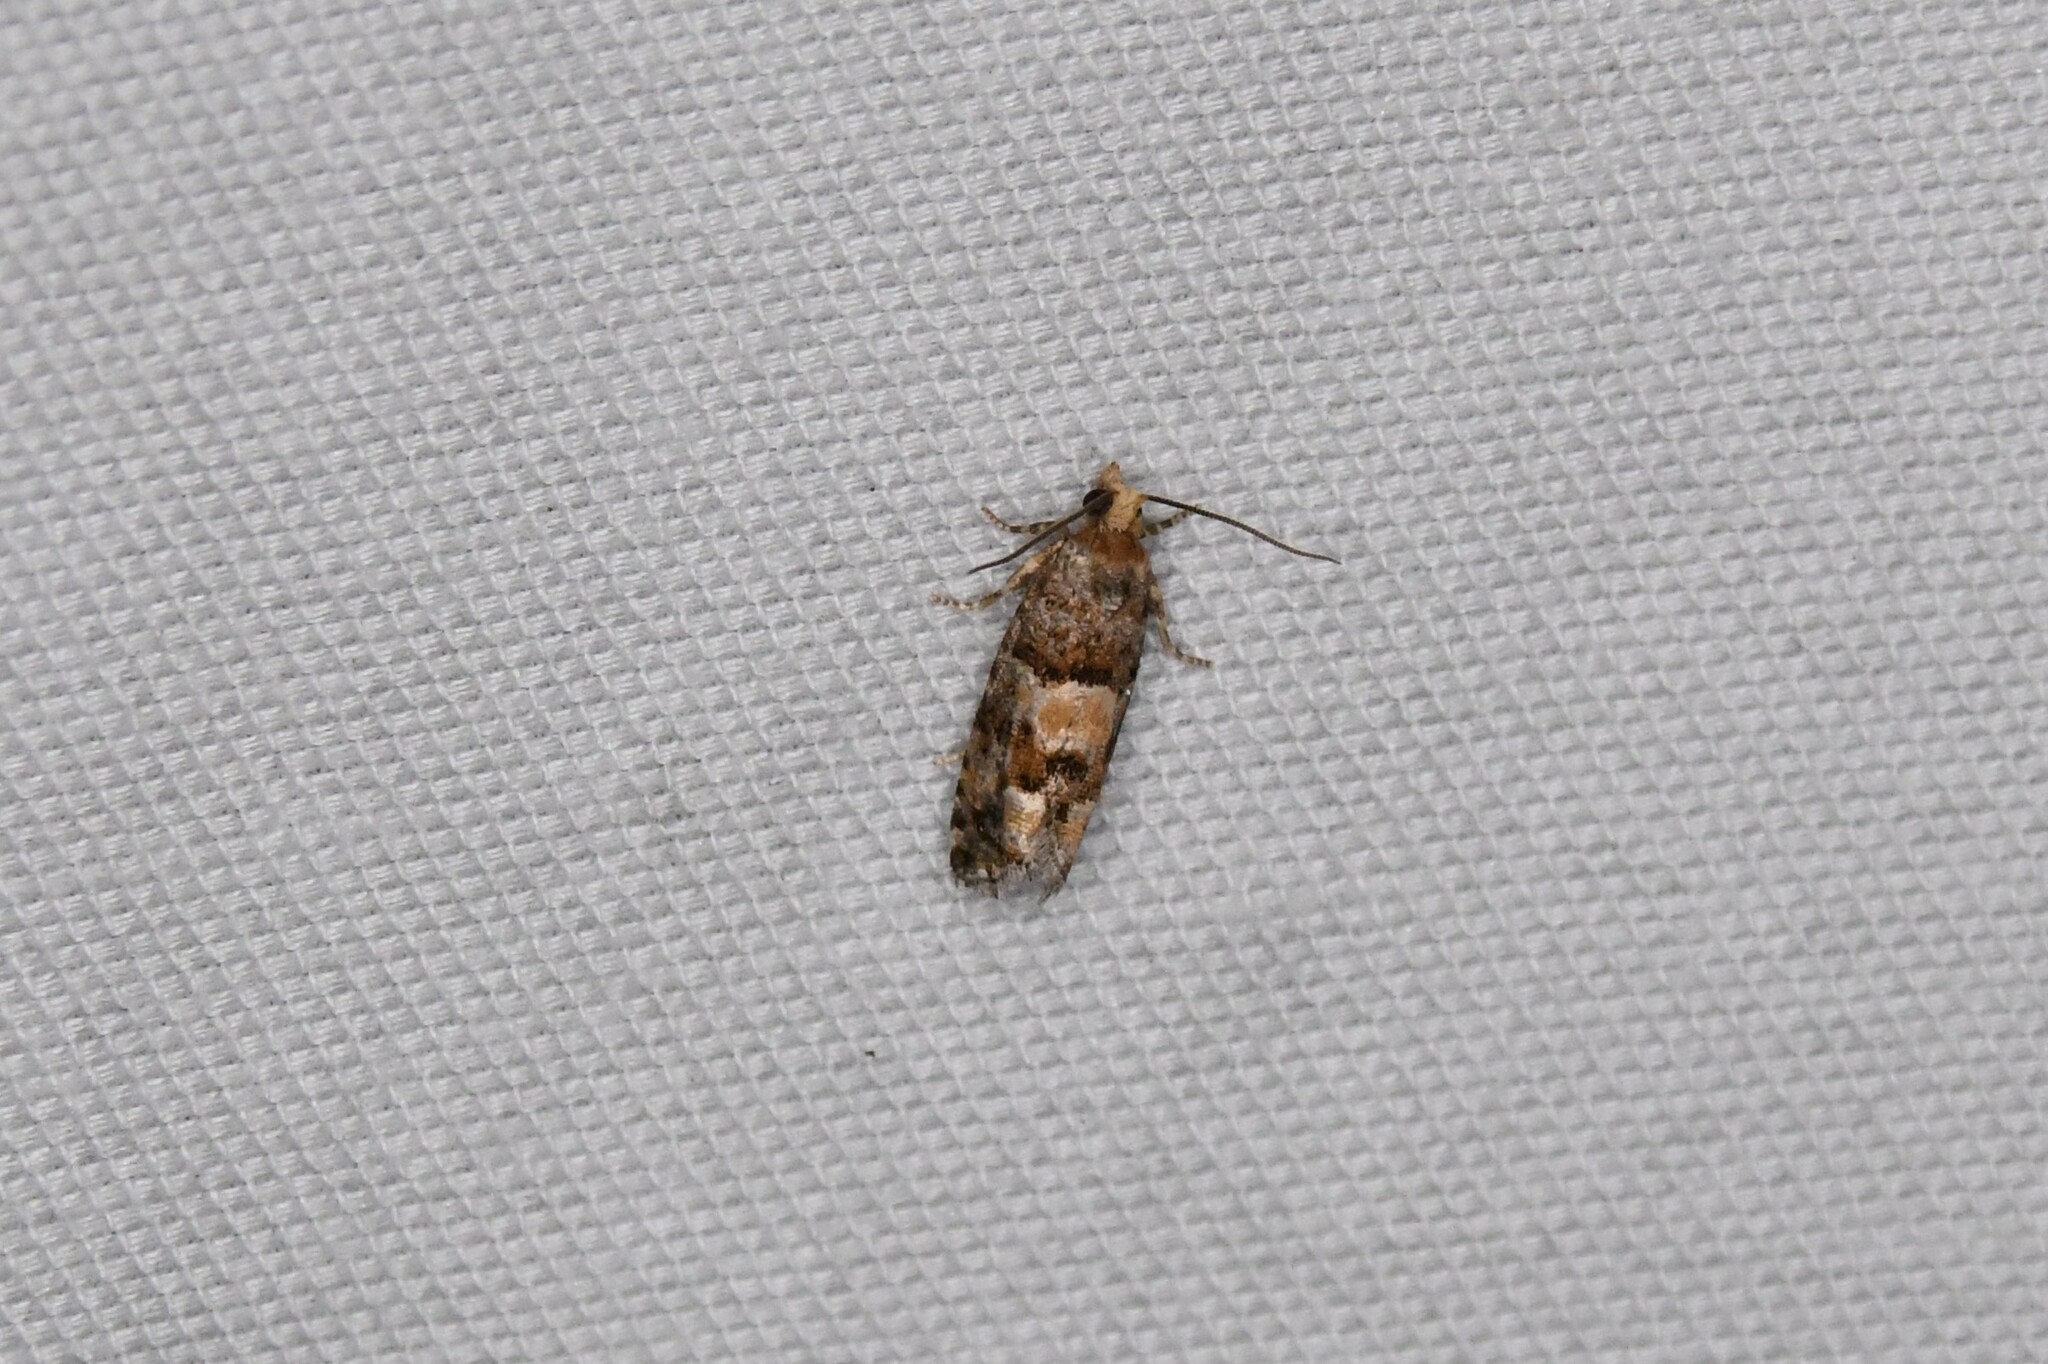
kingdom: Animalia
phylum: Arthropoda
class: Insecta
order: Lepidoptera
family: Tortricidae
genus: Eucopina
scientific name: Eucopina tocullionana
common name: White pinecone borer moth
